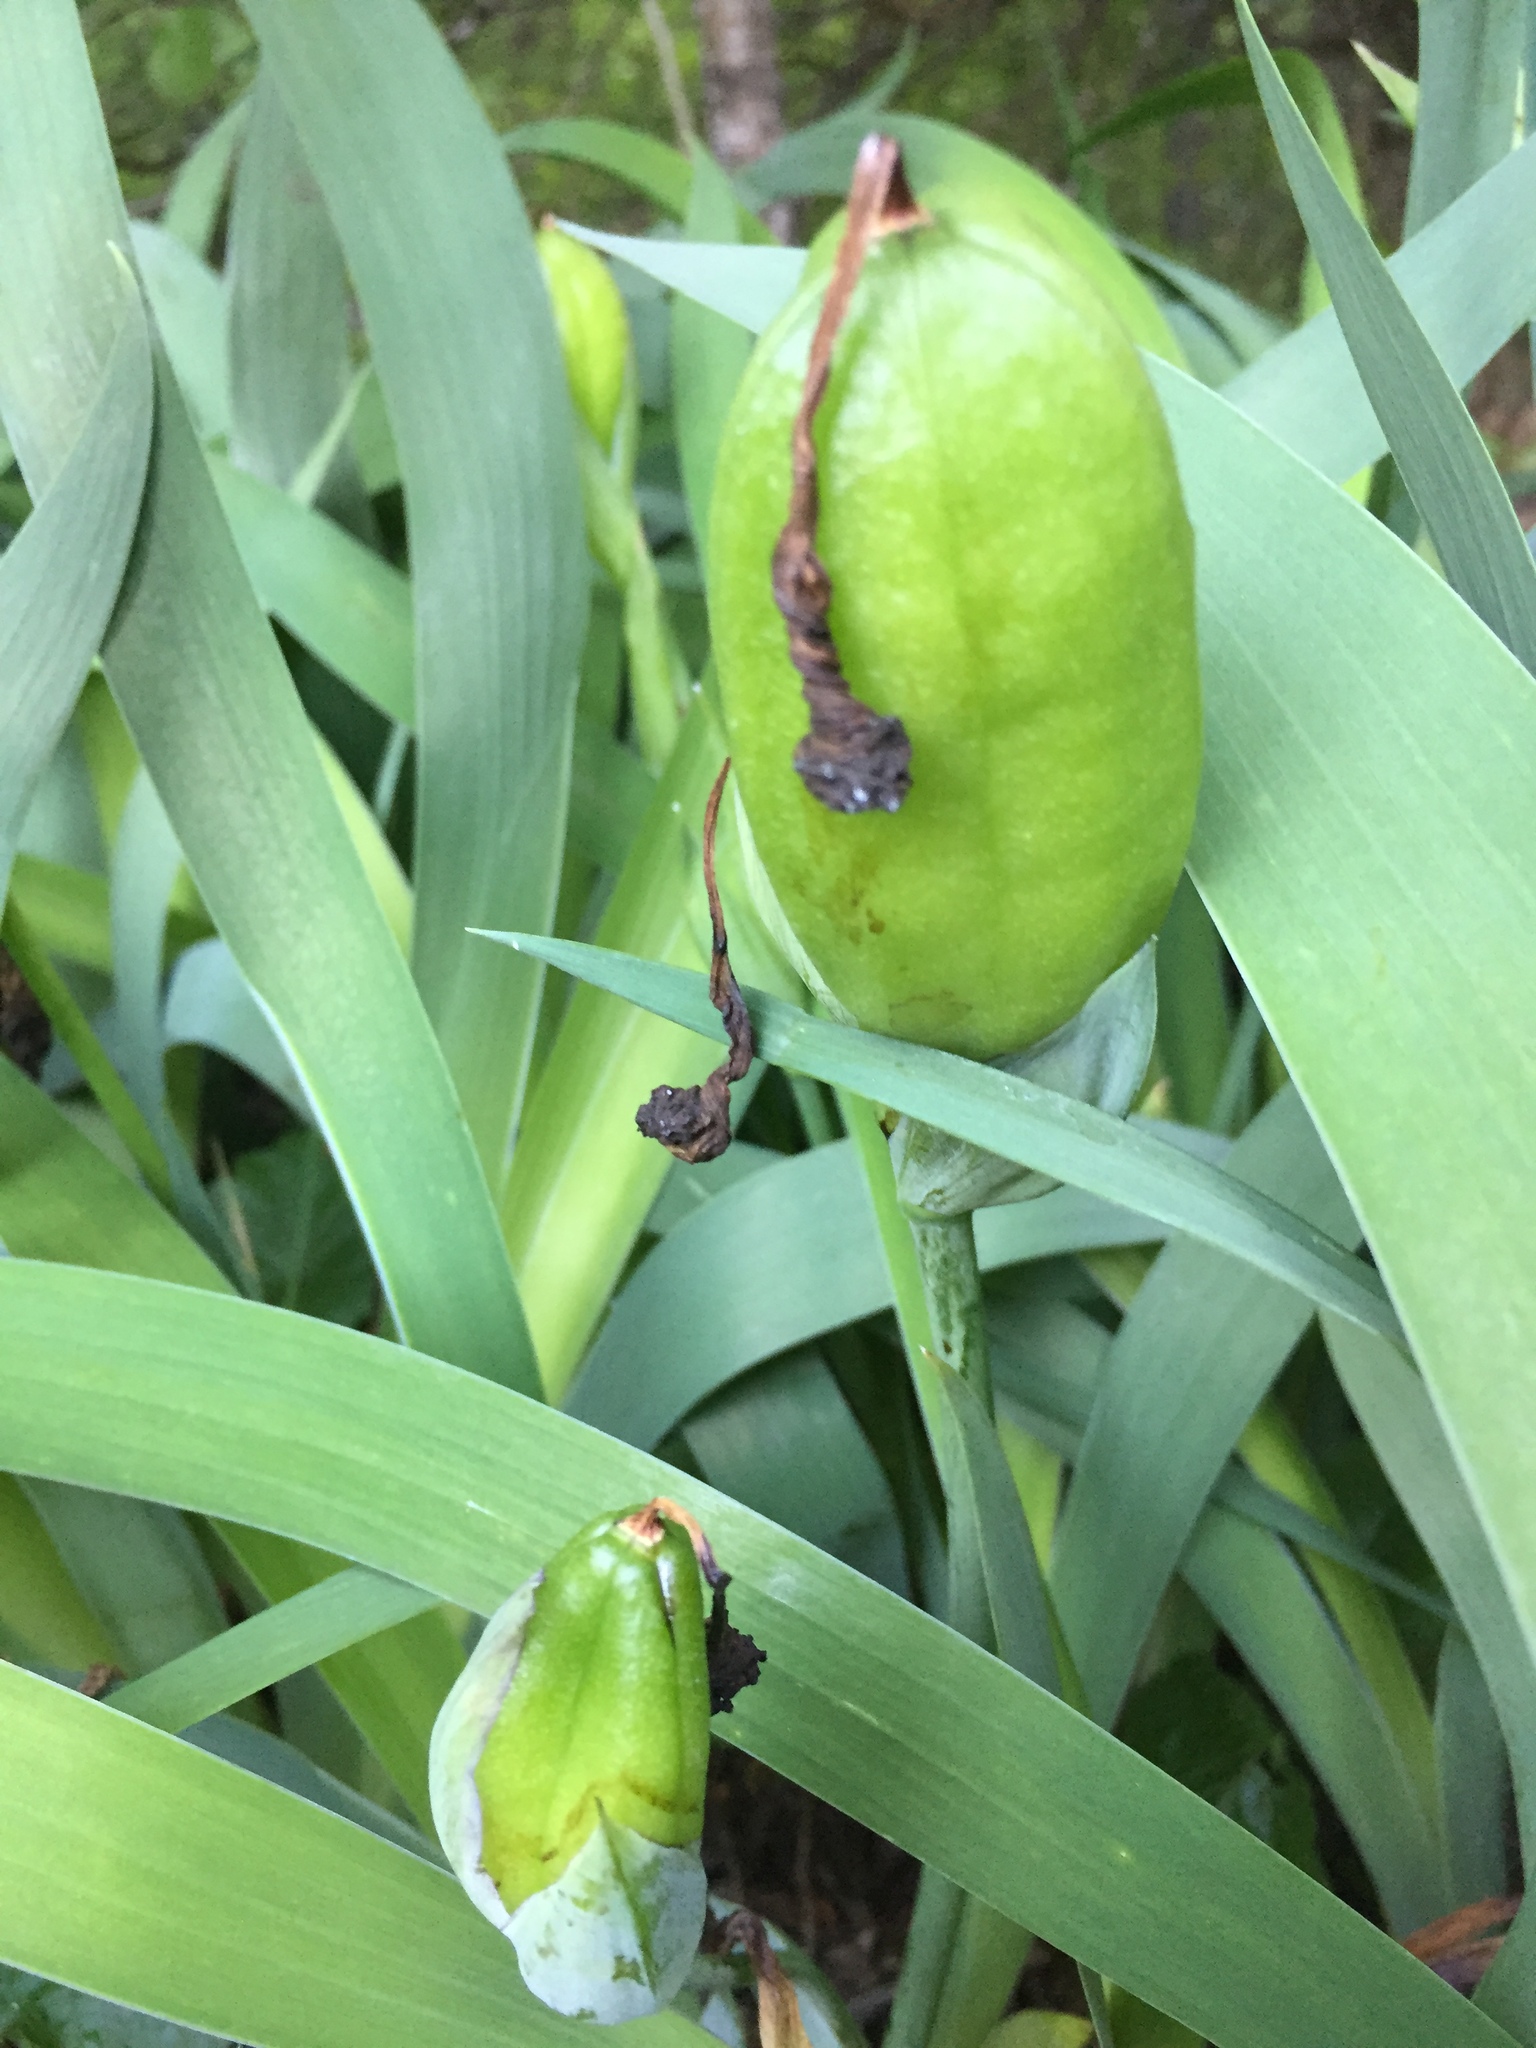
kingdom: Plantae
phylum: Tracheophyta
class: Liliopsida
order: Asparagales
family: Iridaceae
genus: Iris
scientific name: Iris aphylla
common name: Stool iris
